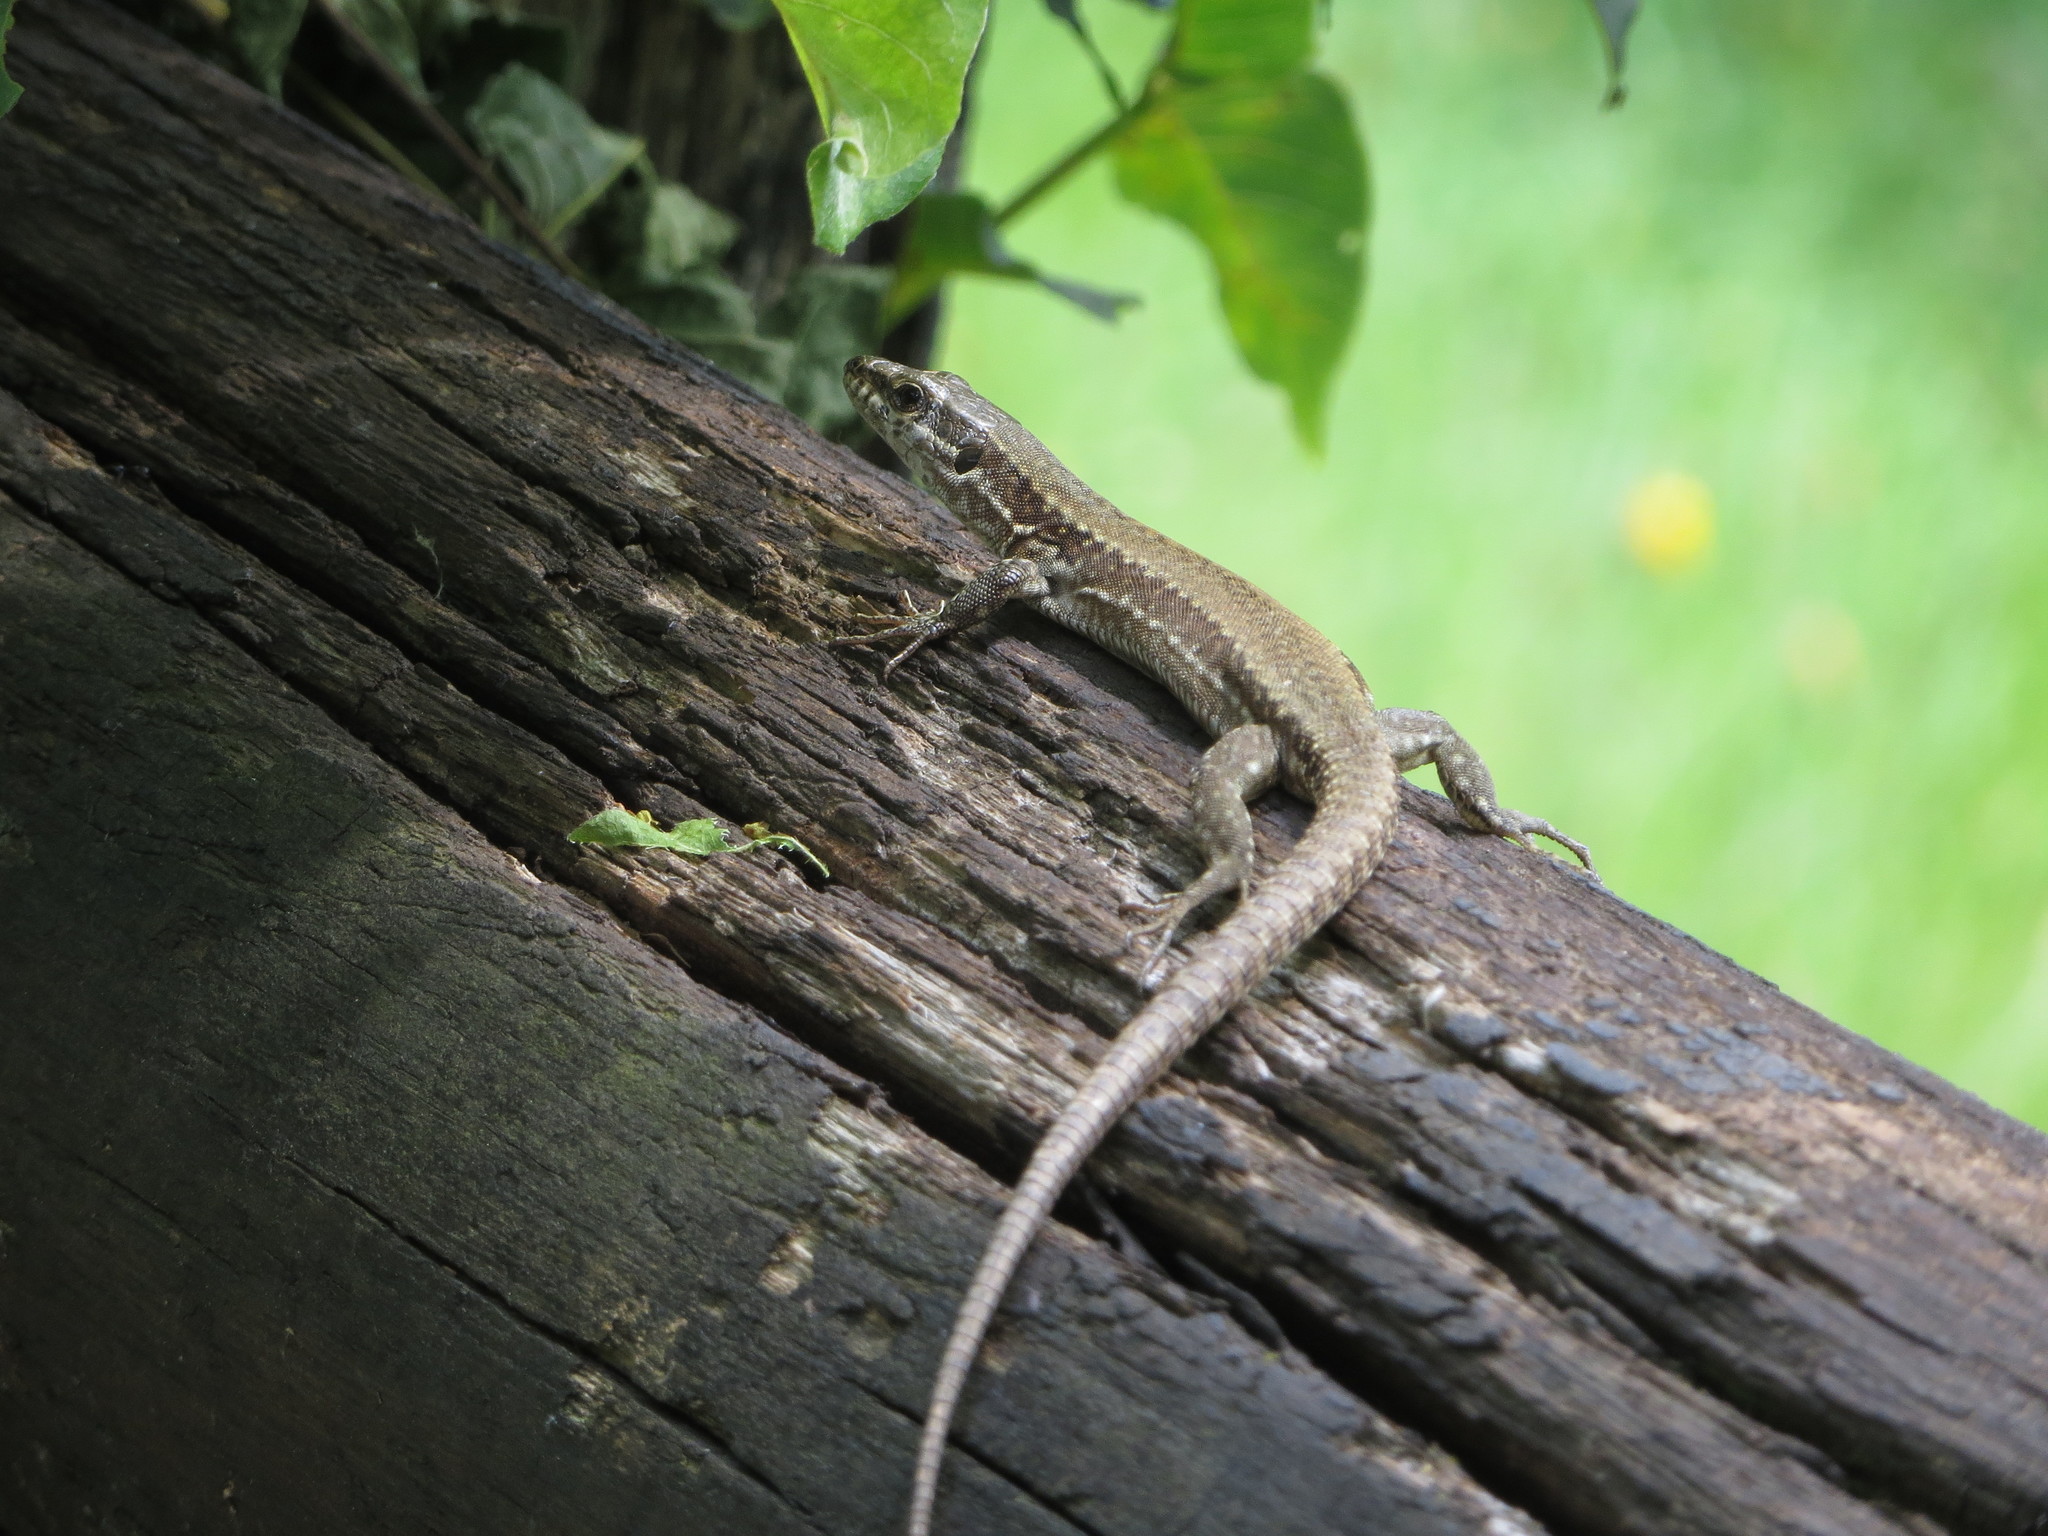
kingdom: Animalia
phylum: Chordata
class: Squamata
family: Lacertidae
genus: Podarcis
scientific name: Podarcis muralis
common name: Common wall lizard
